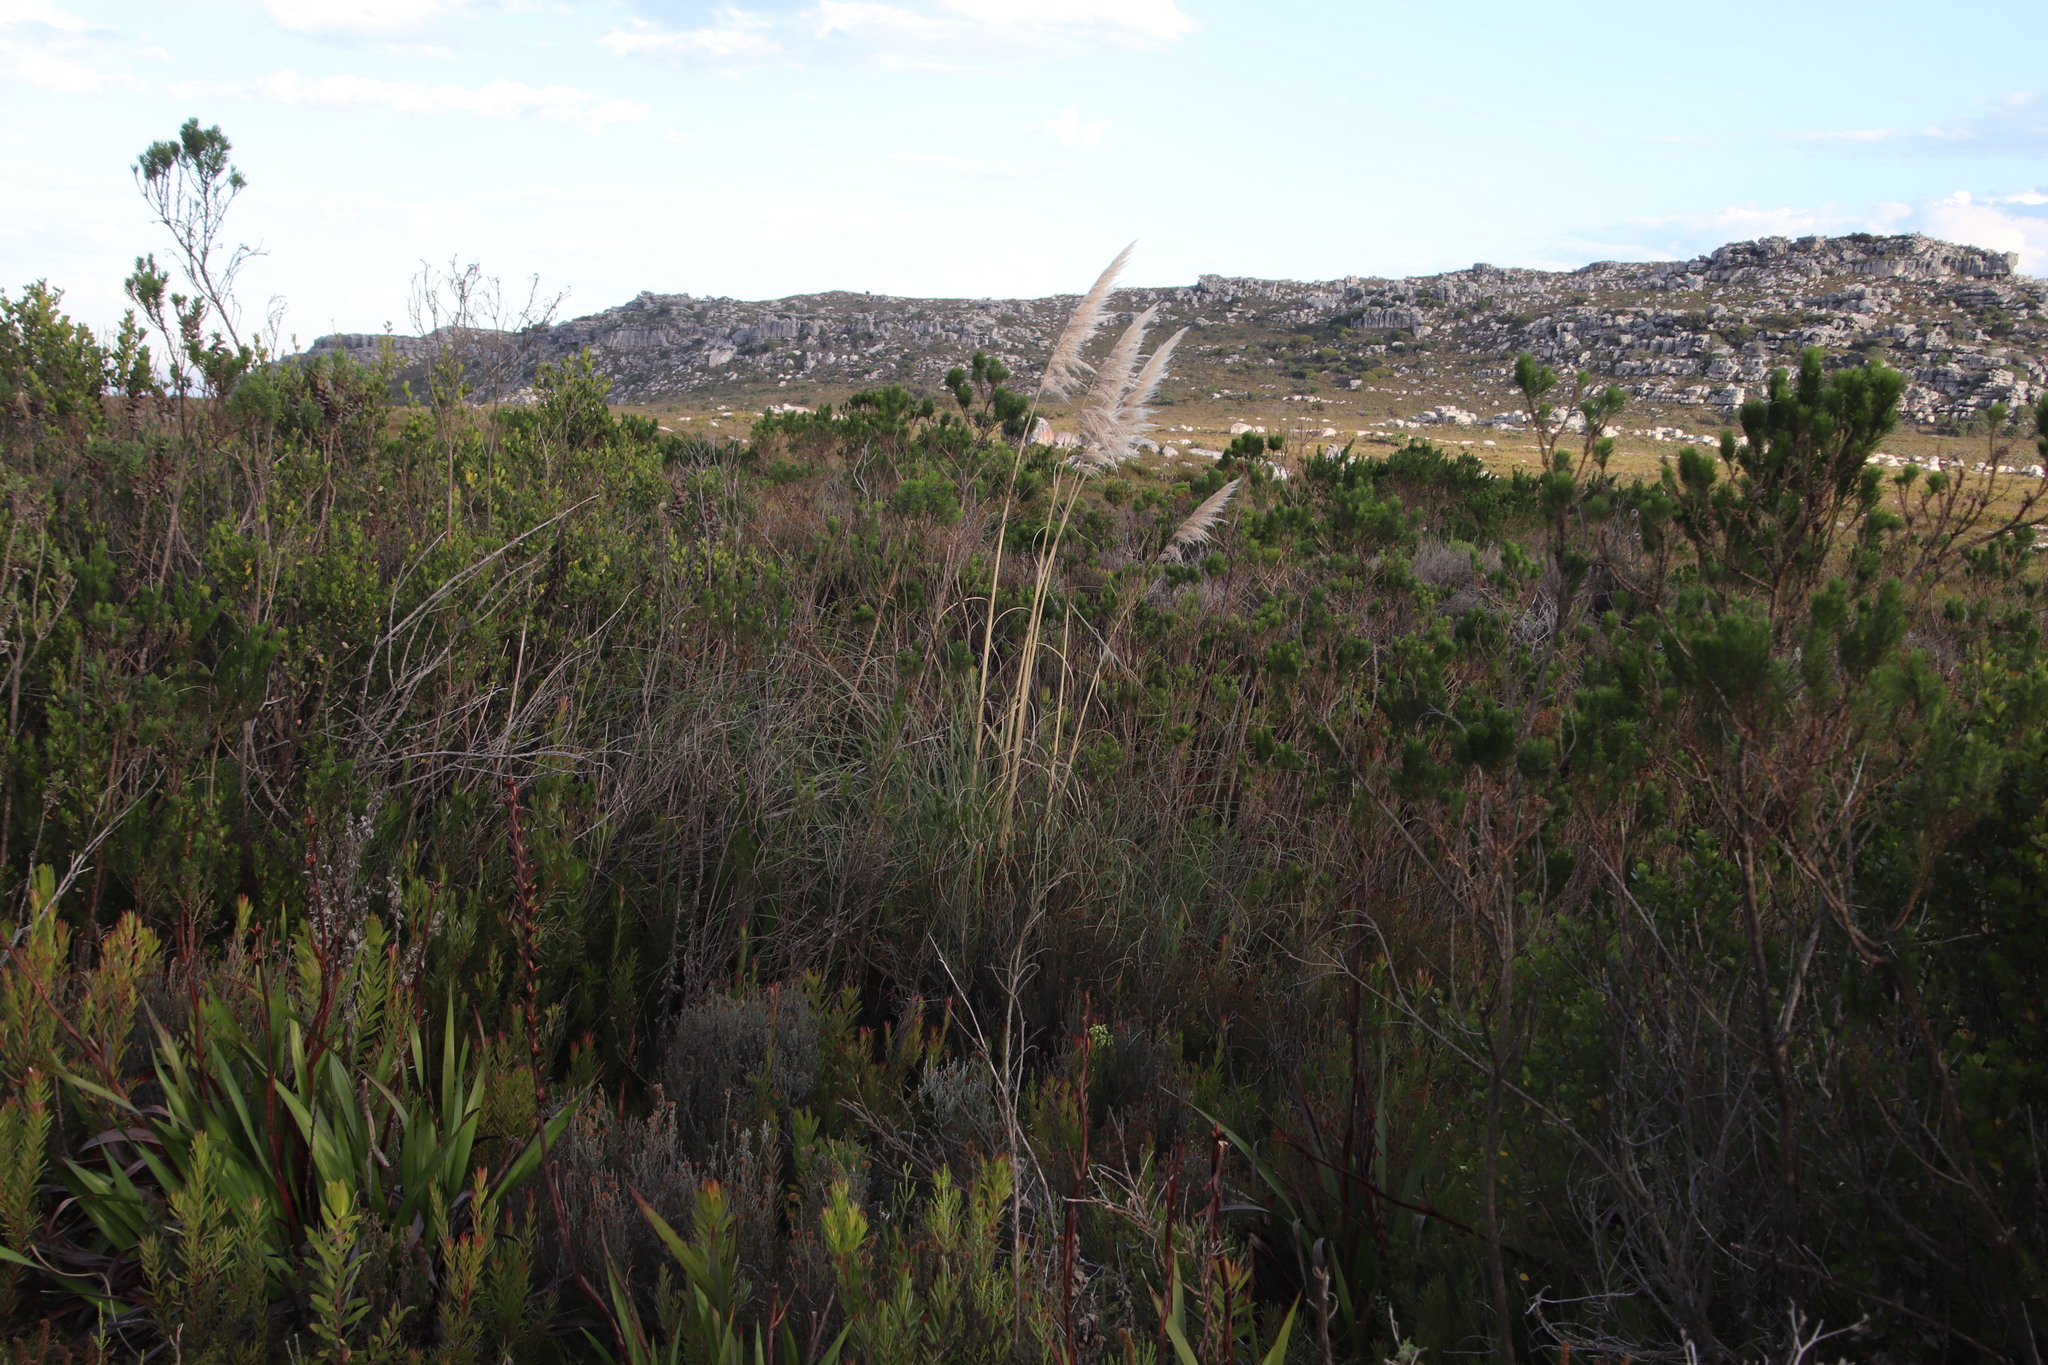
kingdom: Plantae
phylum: Tracheophyta
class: Liliopsida
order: Poales
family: Poaceae
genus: Cortaderia
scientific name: Cortaderia selloana
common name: Uruguayan pampas grass
